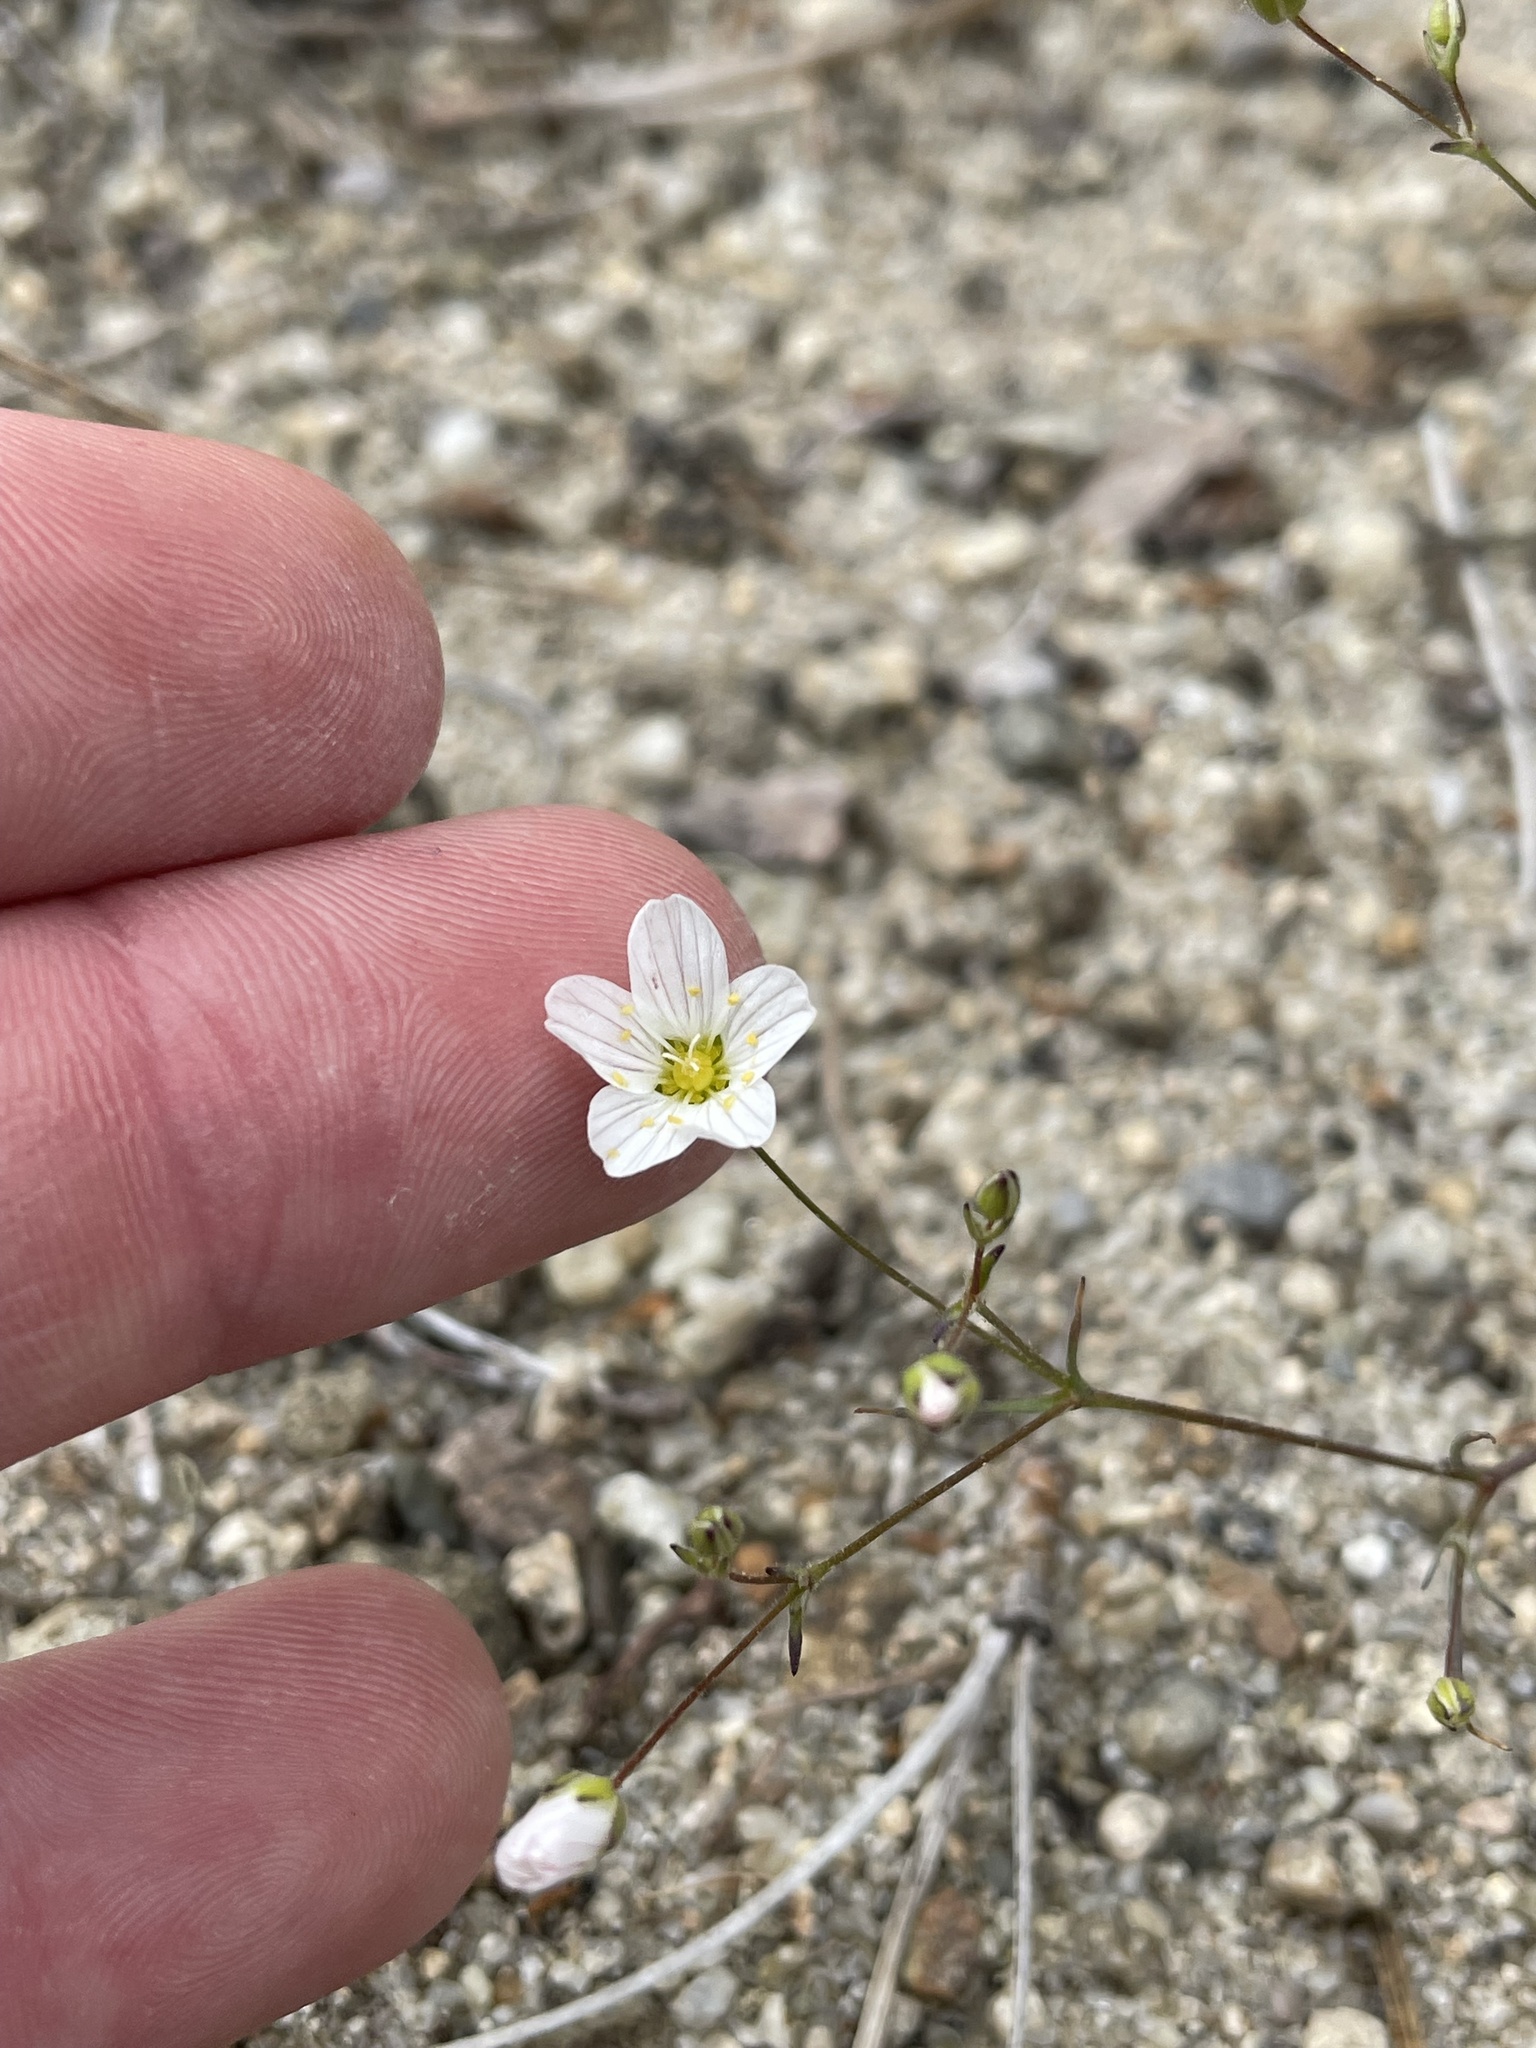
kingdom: Plantae
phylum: Tracheophyta
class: Magnoliopsida
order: Caryophyllales
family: Caryophyllaceae
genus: Sabulina
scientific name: Sabulina douglasii
